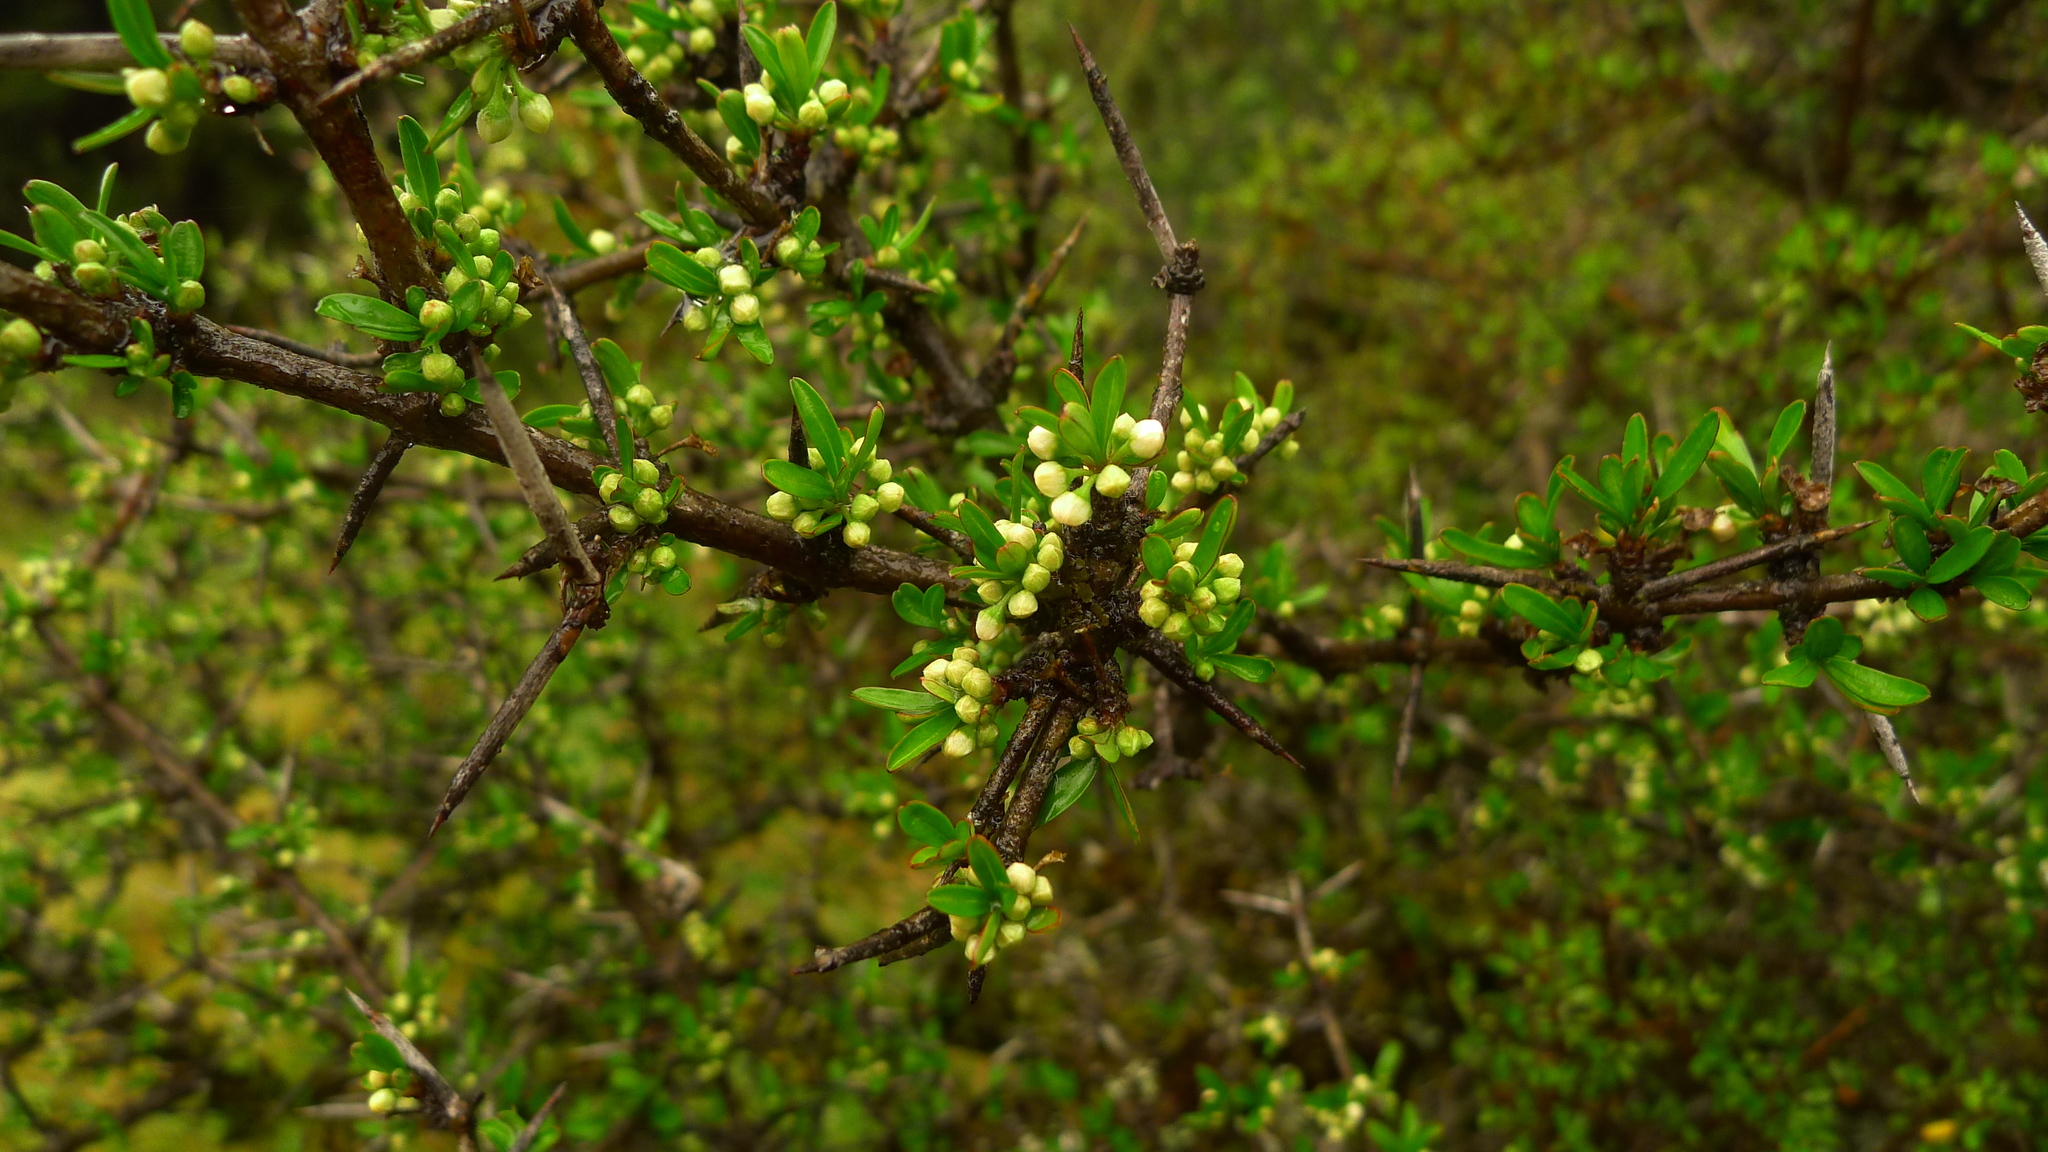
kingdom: Plantae
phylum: Tracheophyta
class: Magnoliopsida
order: Rosales
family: Rhamnaceae
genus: Discaria
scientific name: Discaria toumatou
